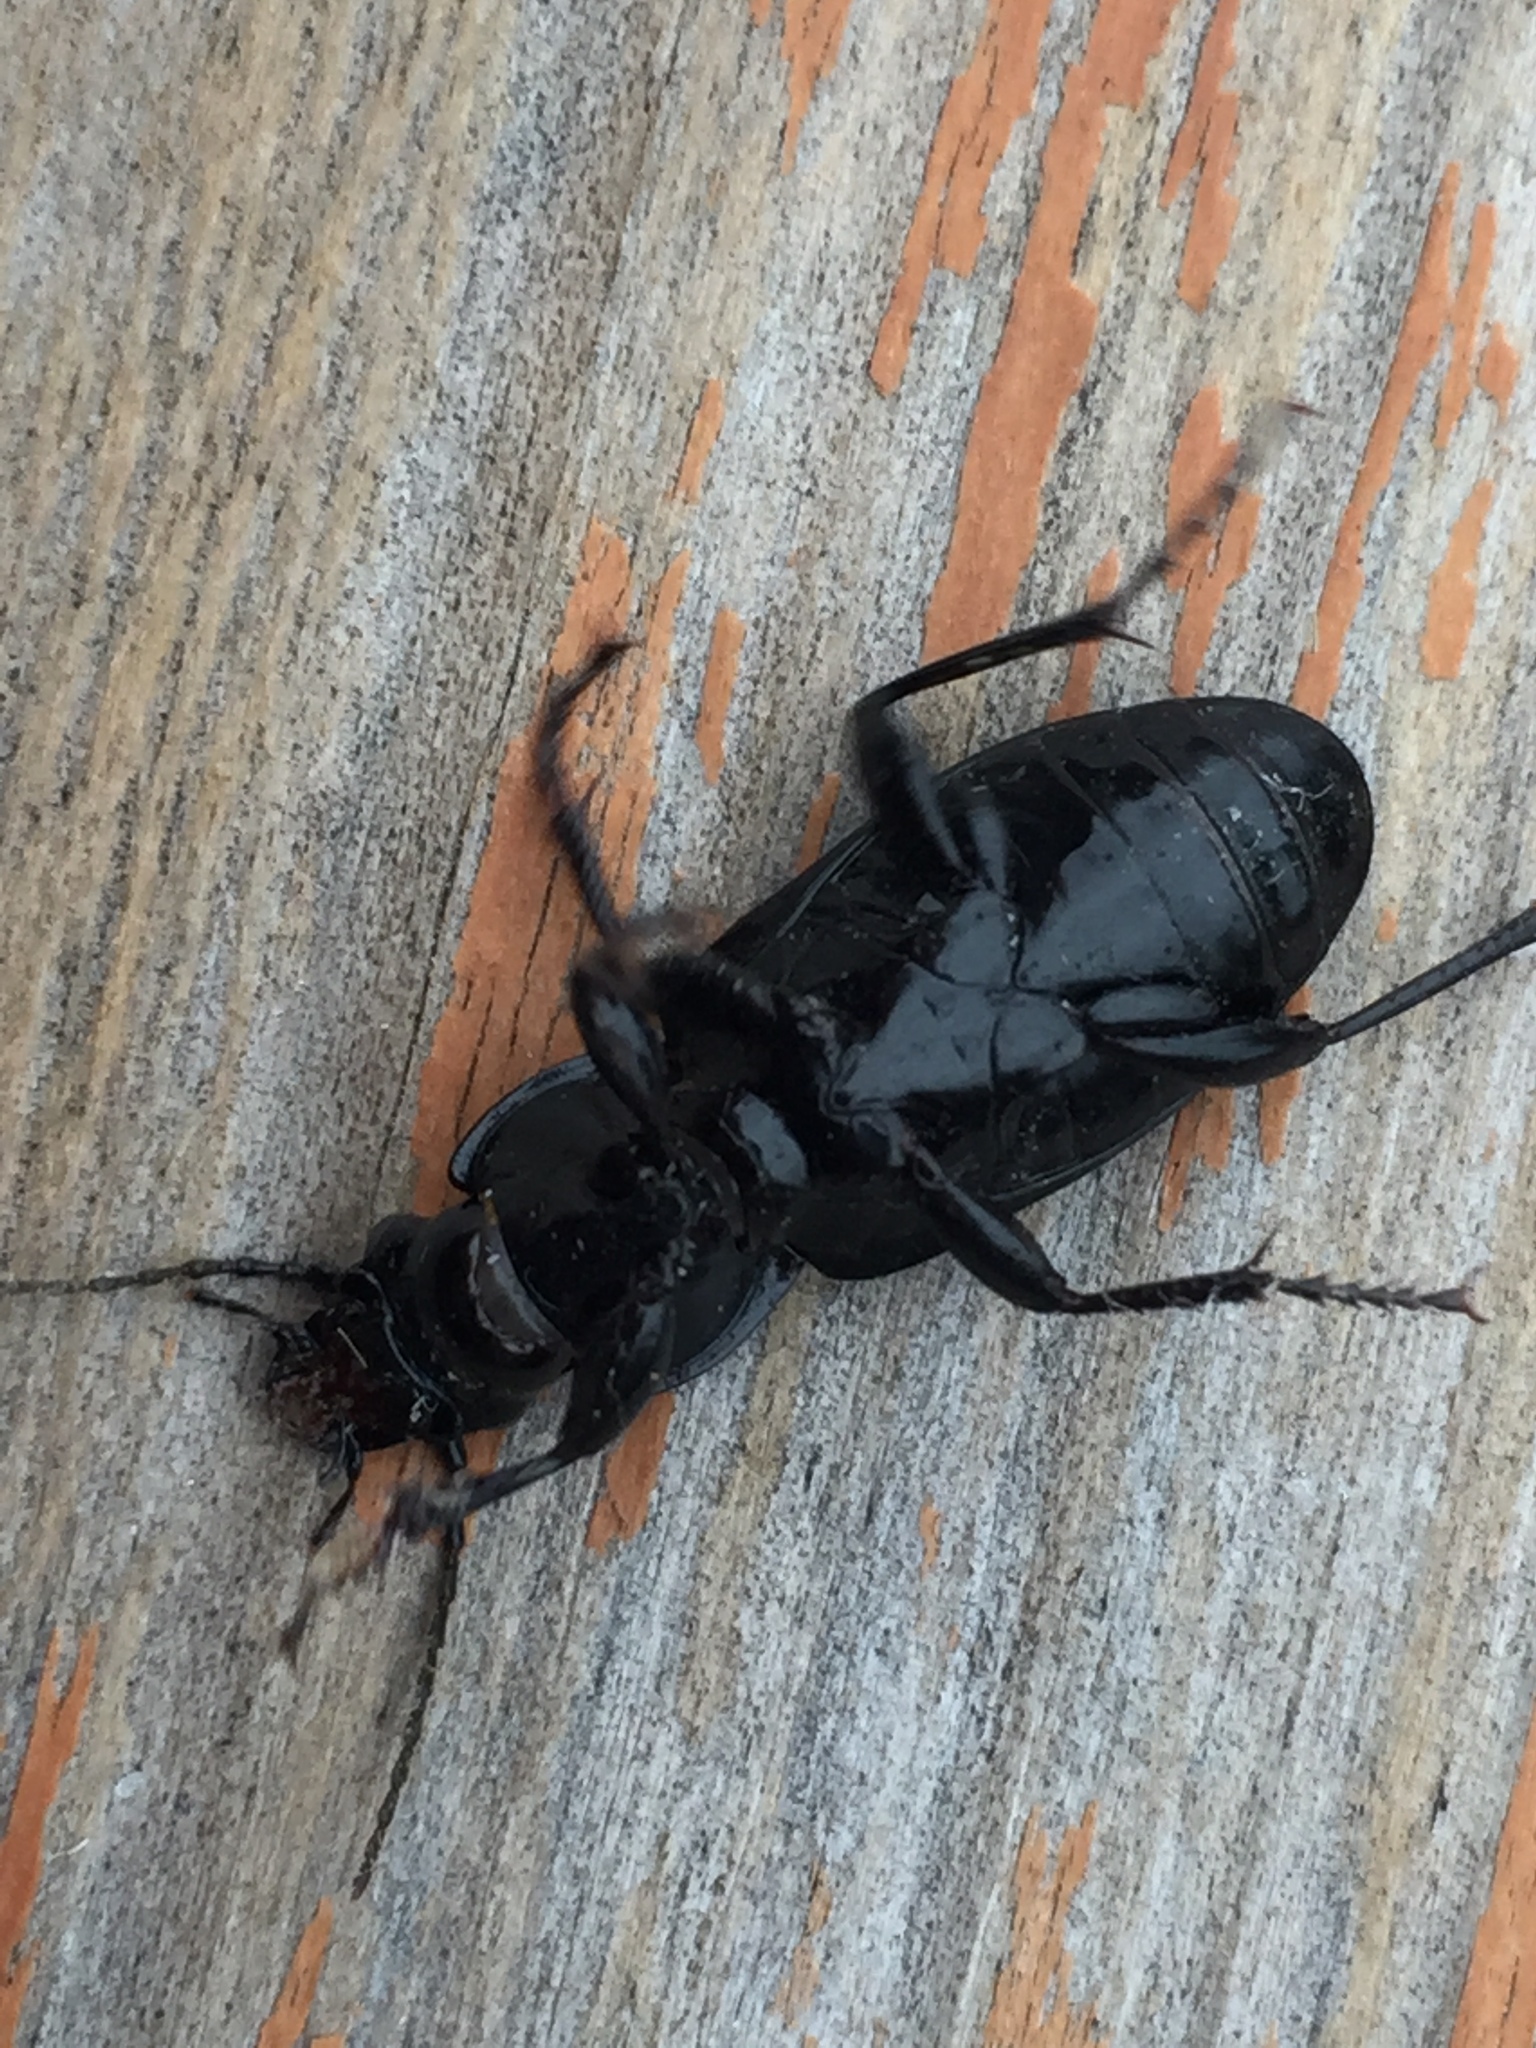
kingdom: Animalia
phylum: Arthropoda
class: Insecta
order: Coleoptera
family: Carabidae
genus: Pterostichus
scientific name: Pterostichus melanarius
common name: European dark harp ground beetle
